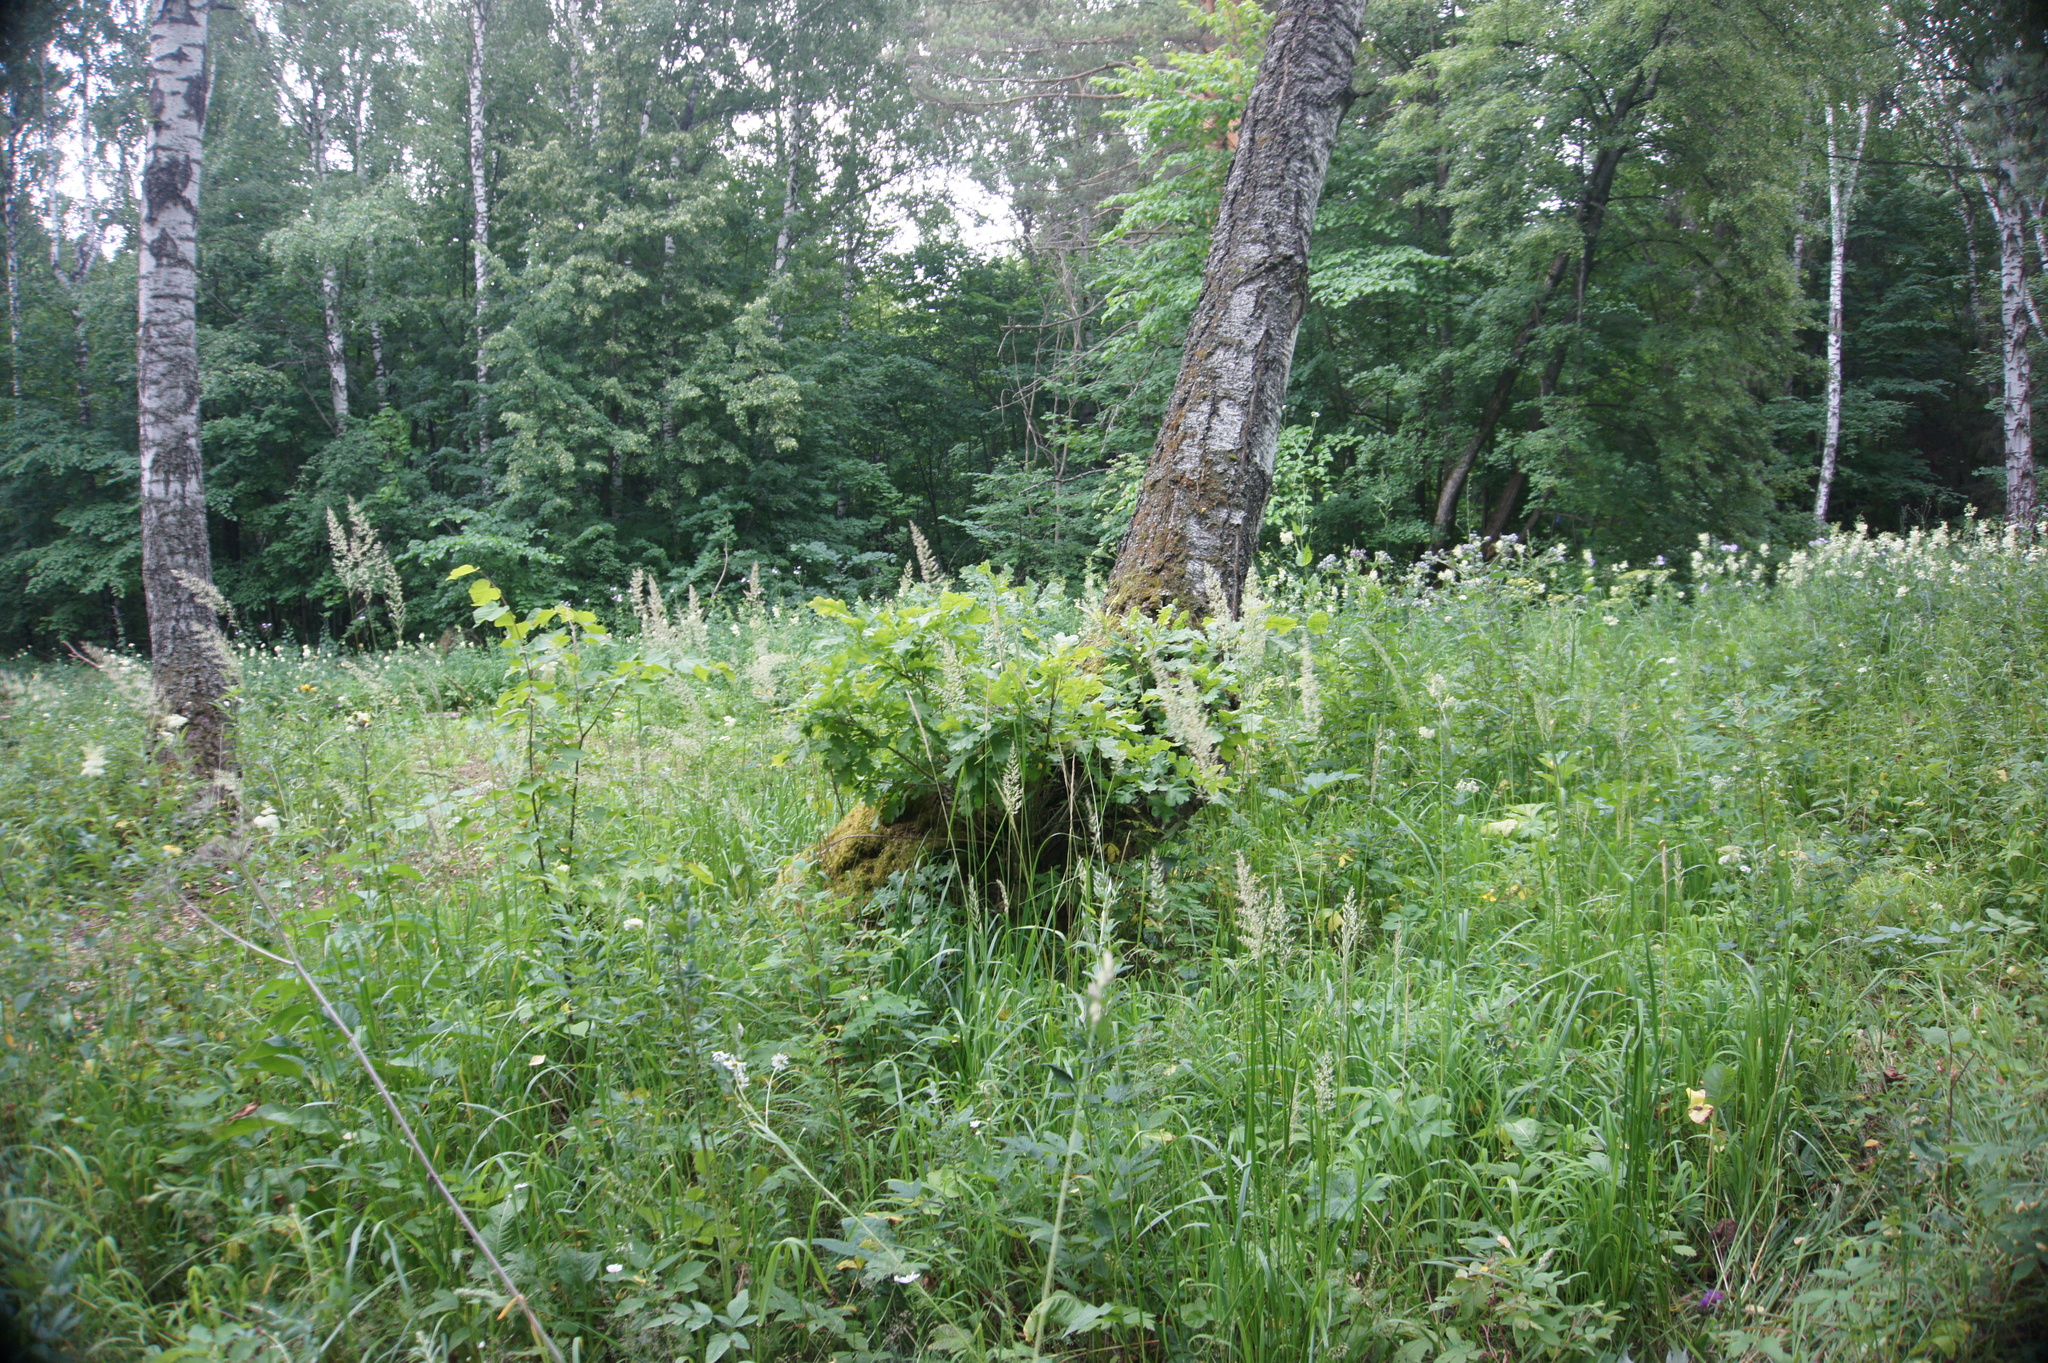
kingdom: Plantae
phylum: Tracheophyta
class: Magnoliopsida
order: Fagales
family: Fagaceae
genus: Quercus
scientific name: Quercus robur
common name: Pedunculate oak
